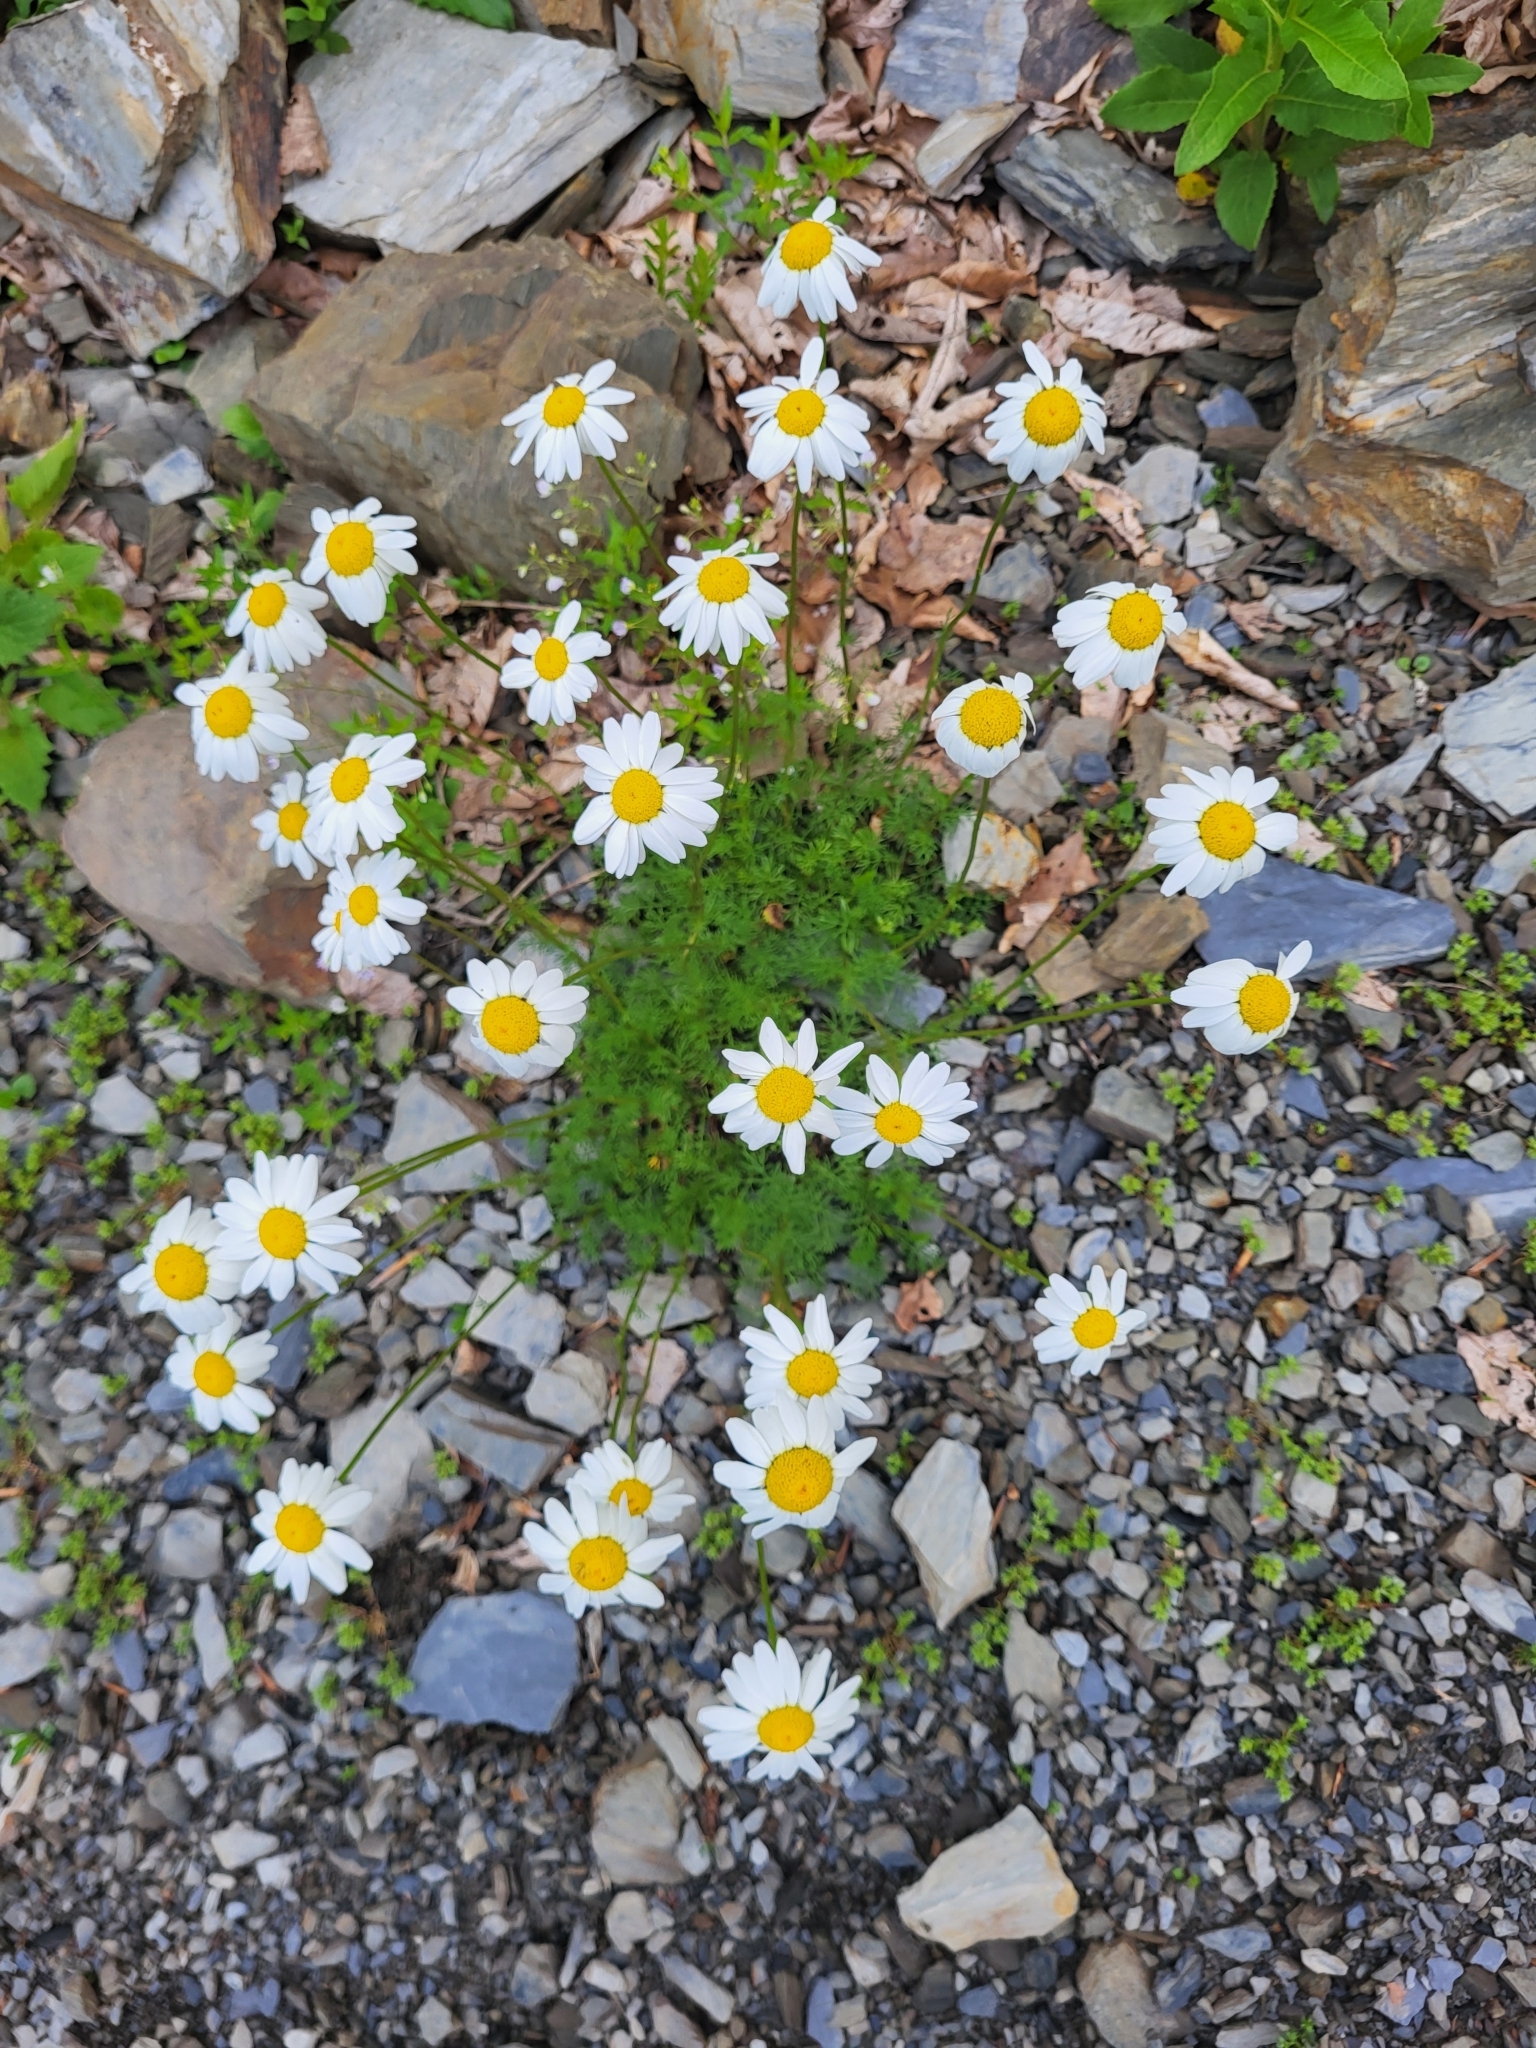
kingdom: Plantae
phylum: Tracheophyta
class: Magnoliopsida
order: Asterales
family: Asteraceae
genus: Tripleurospermum
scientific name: Tripleurospermum caucasicum
